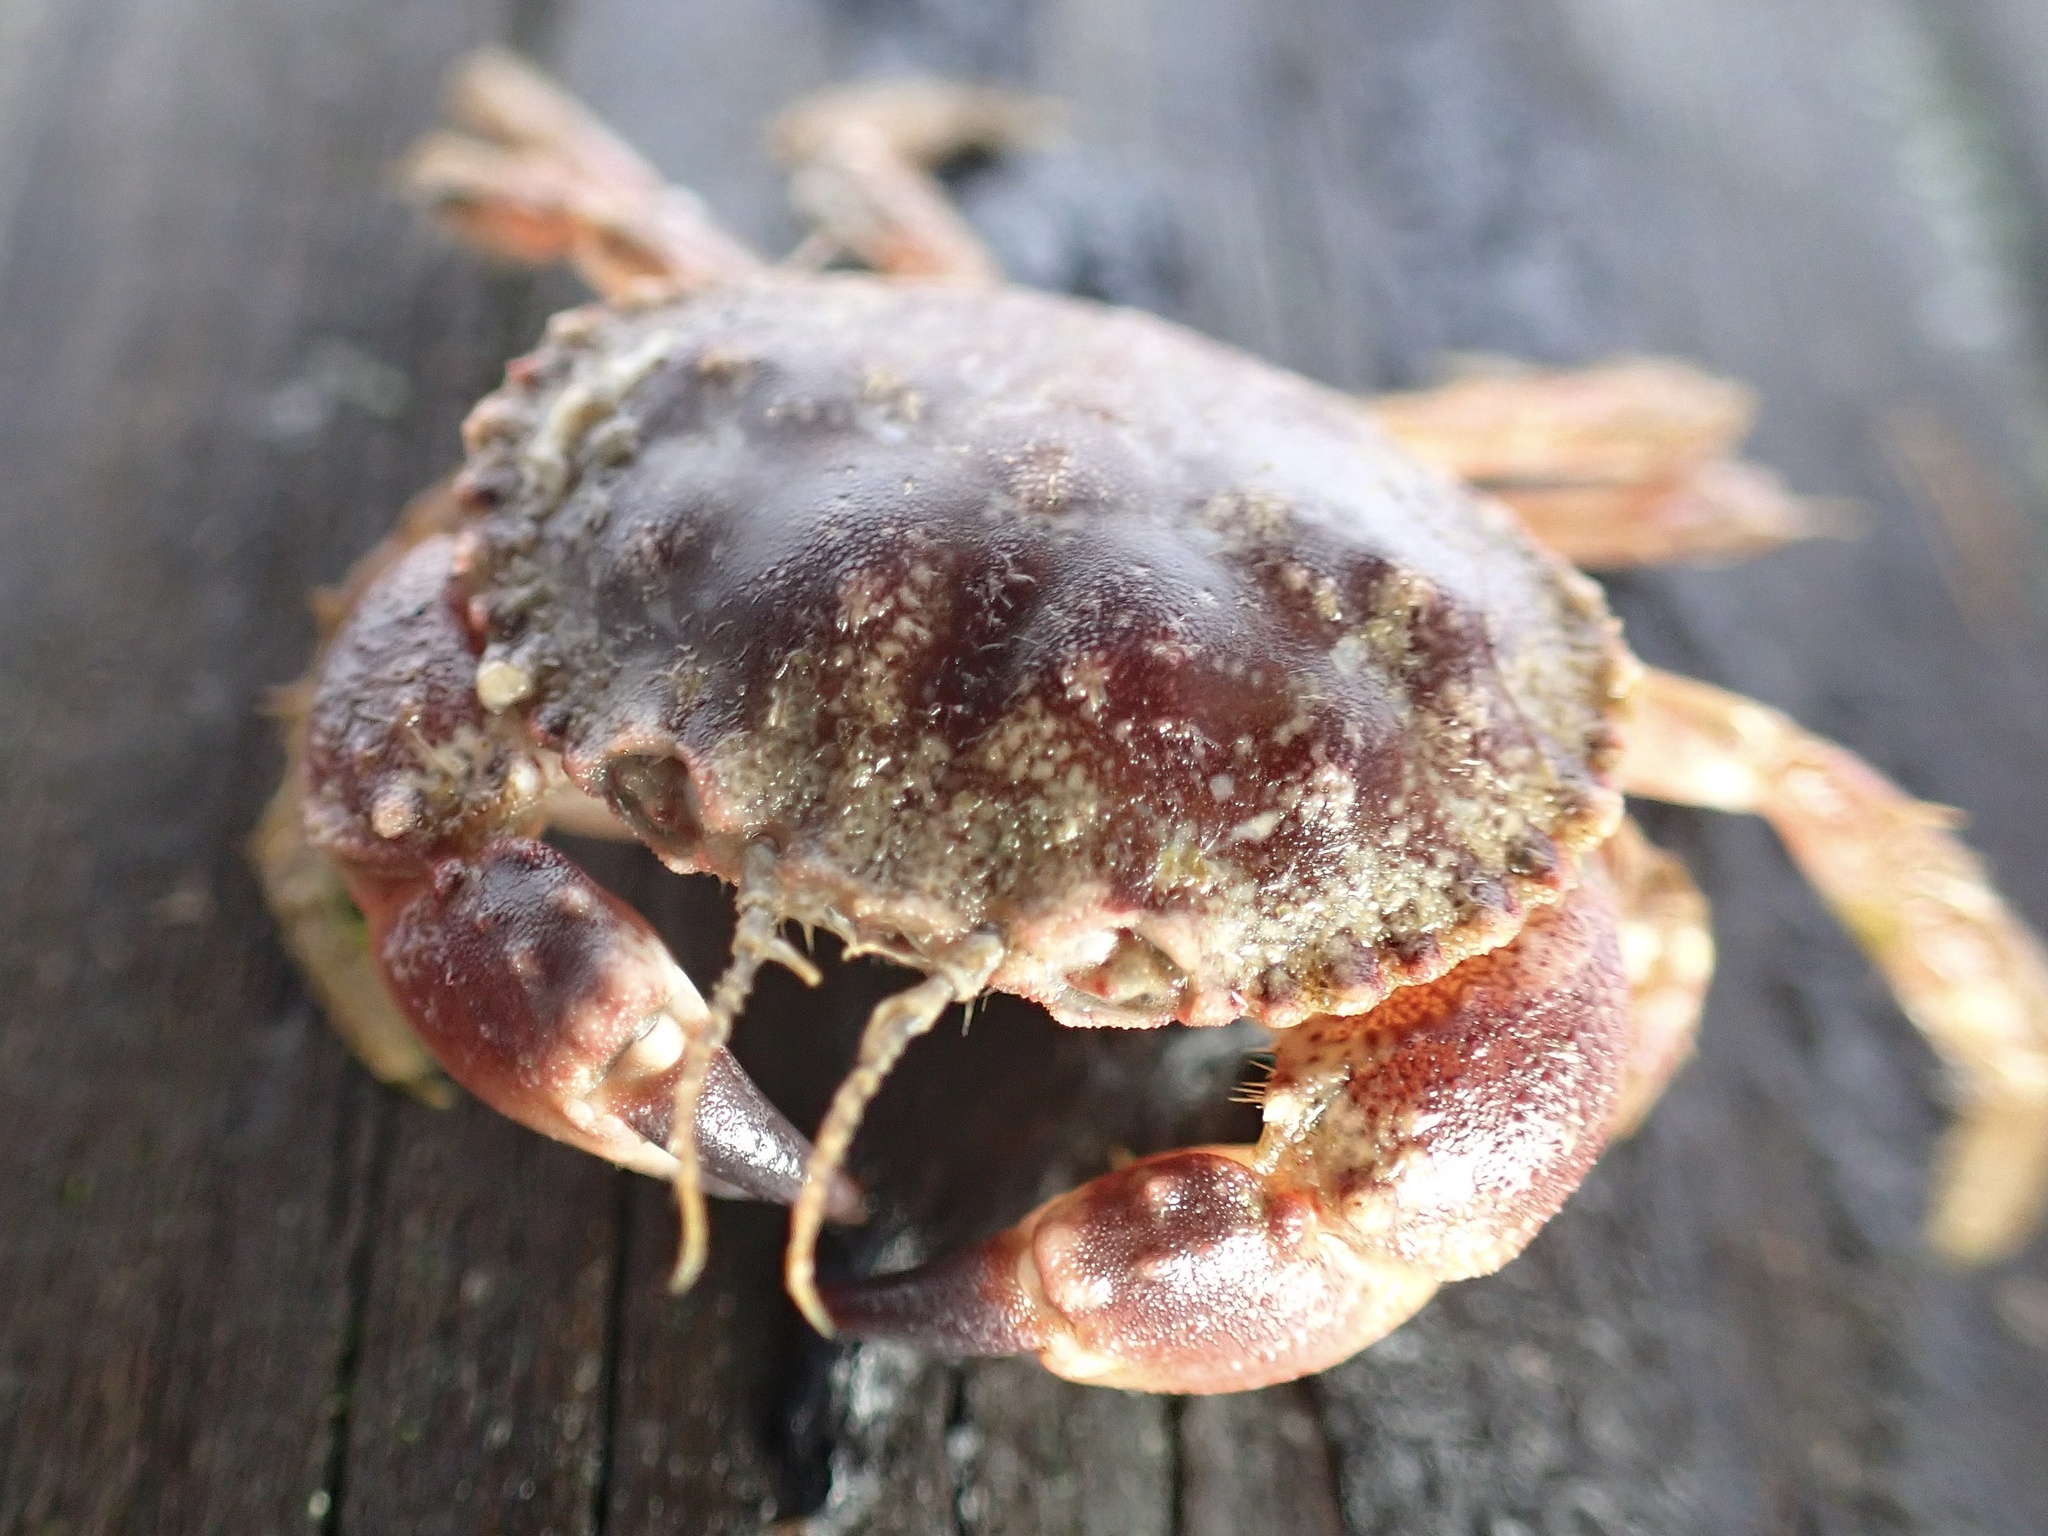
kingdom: Animalia
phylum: Arthropoda
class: Malacostraca
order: Decapoda
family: Cancridae
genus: Glebocarcinus
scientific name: Glebocarcinus oregonensis
